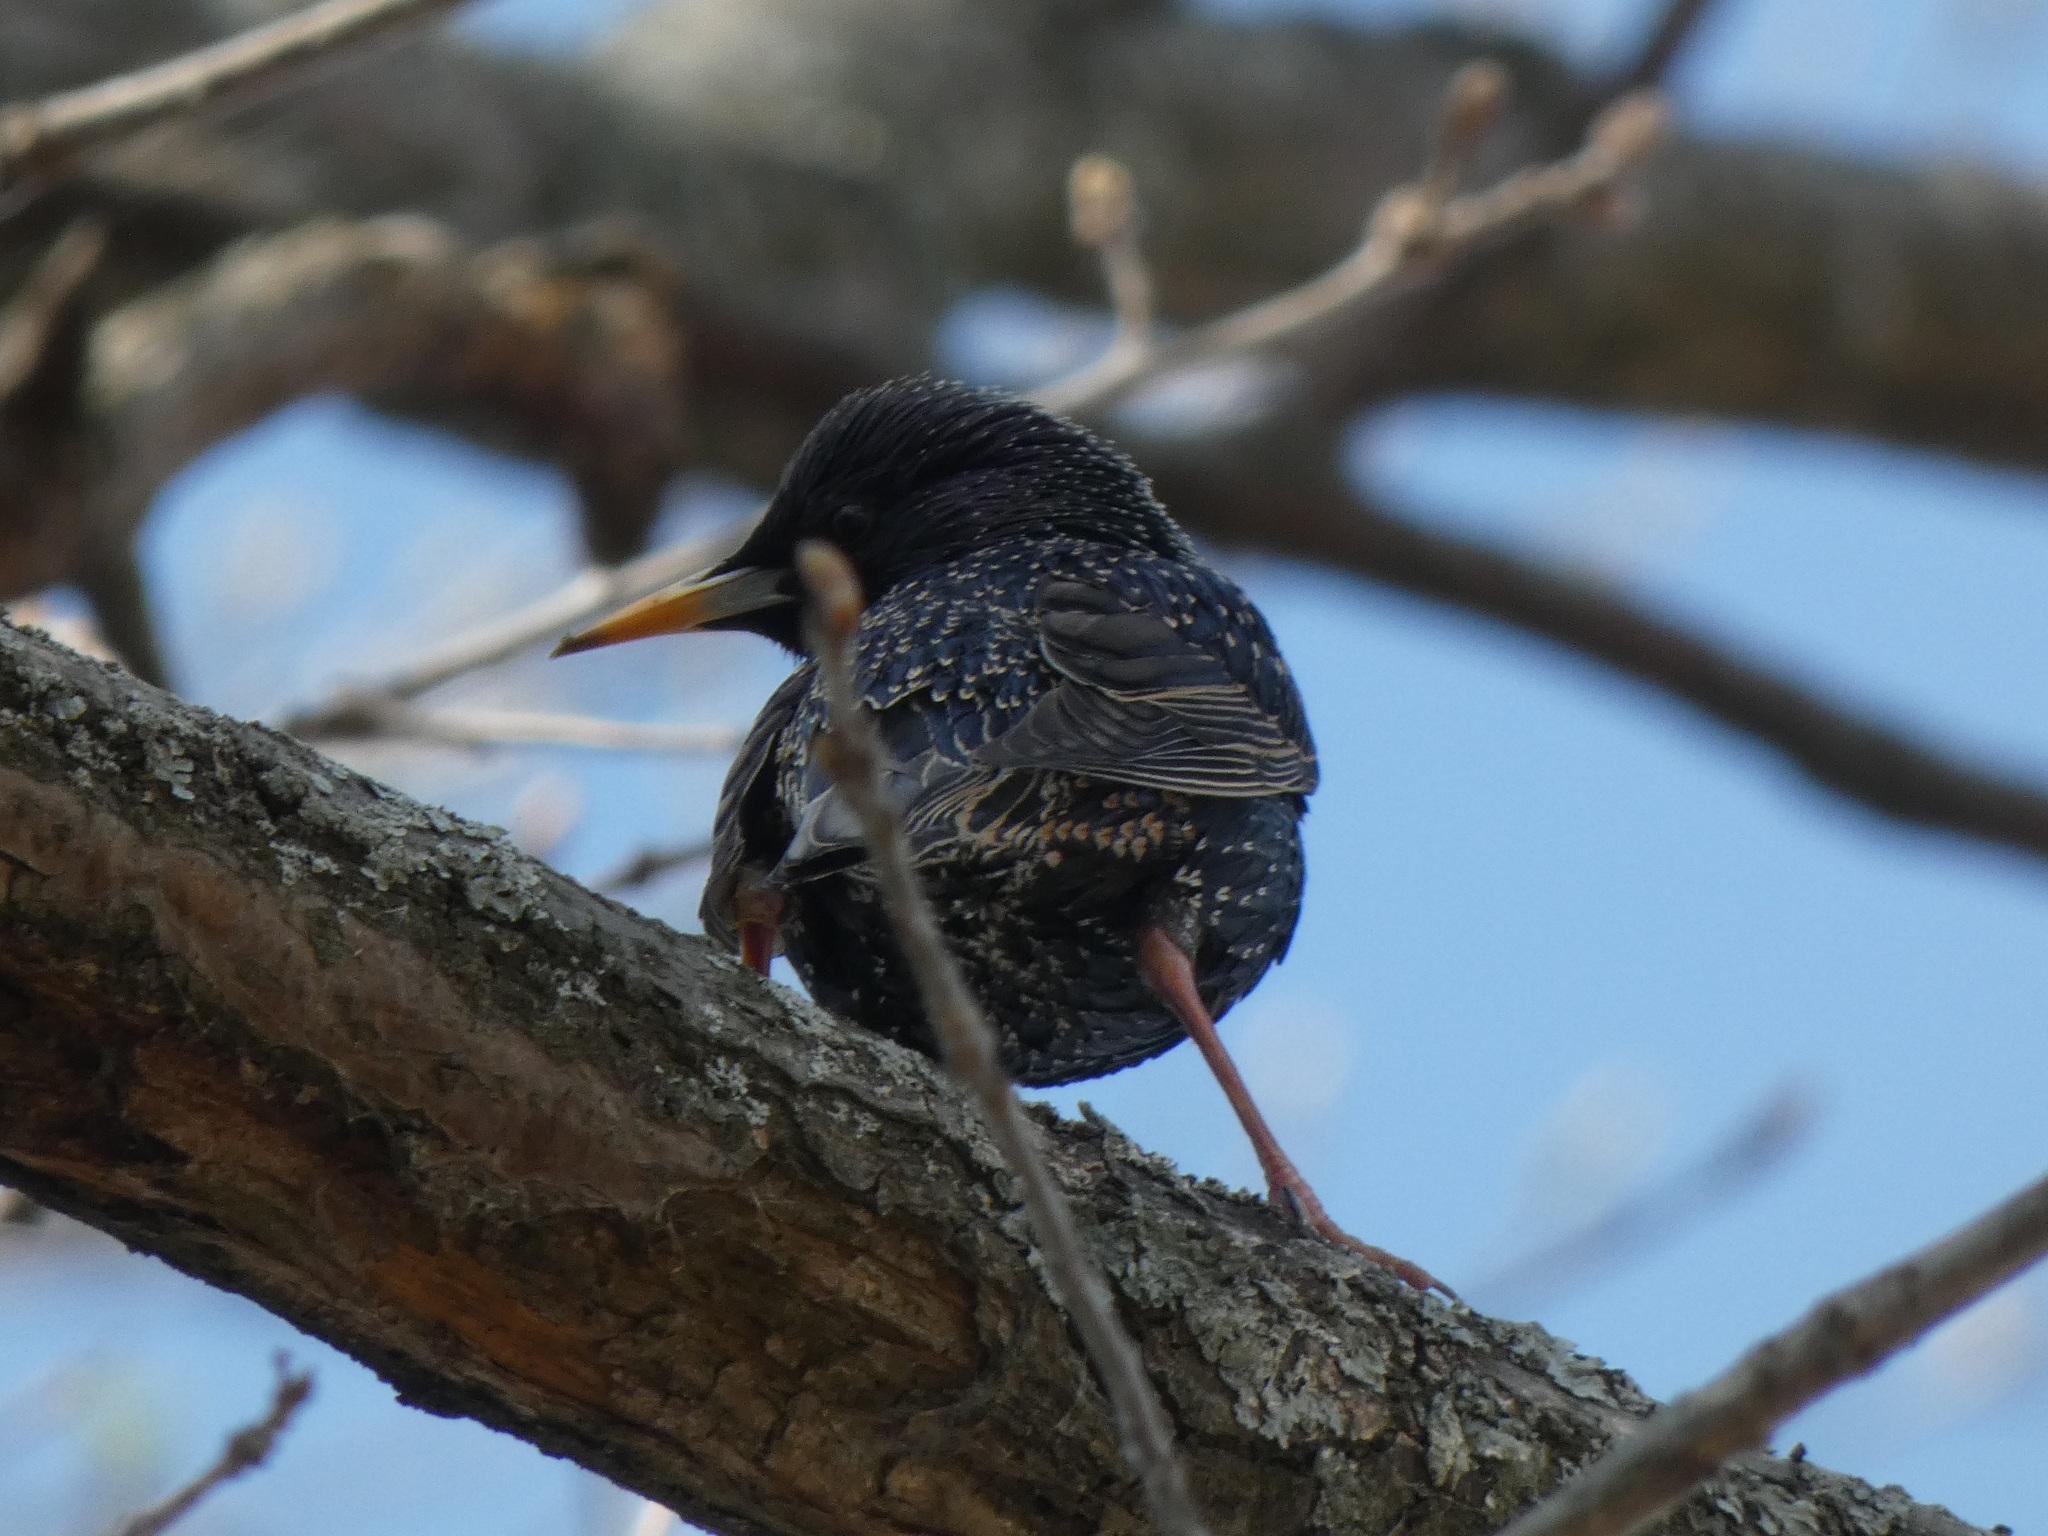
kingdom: Animalia
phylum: Chordata
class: Aves
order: Passeriformes
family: Sturnidae
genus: Sturnus
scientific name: Sturnus vulgaris
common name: Common starling
